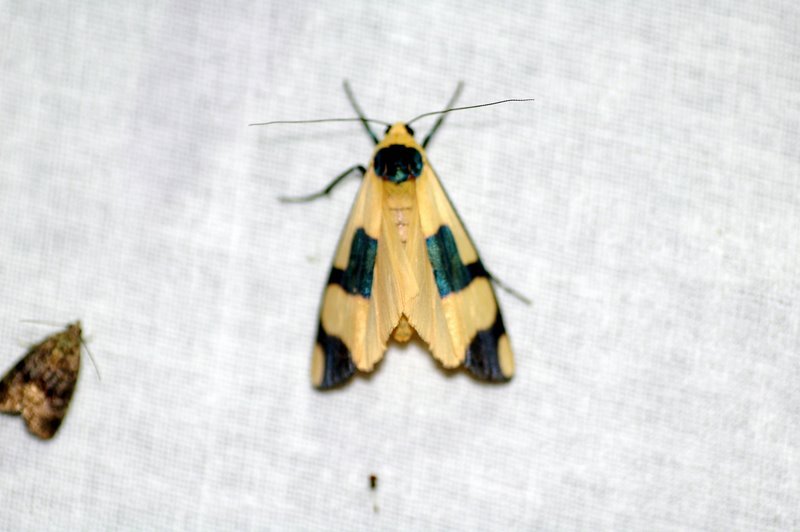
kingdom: Animalia
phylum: Arthropoda
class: Insecta
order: Lepidoptera
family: Erebidae
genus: Oeonistis
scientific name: Oeonistis altica
